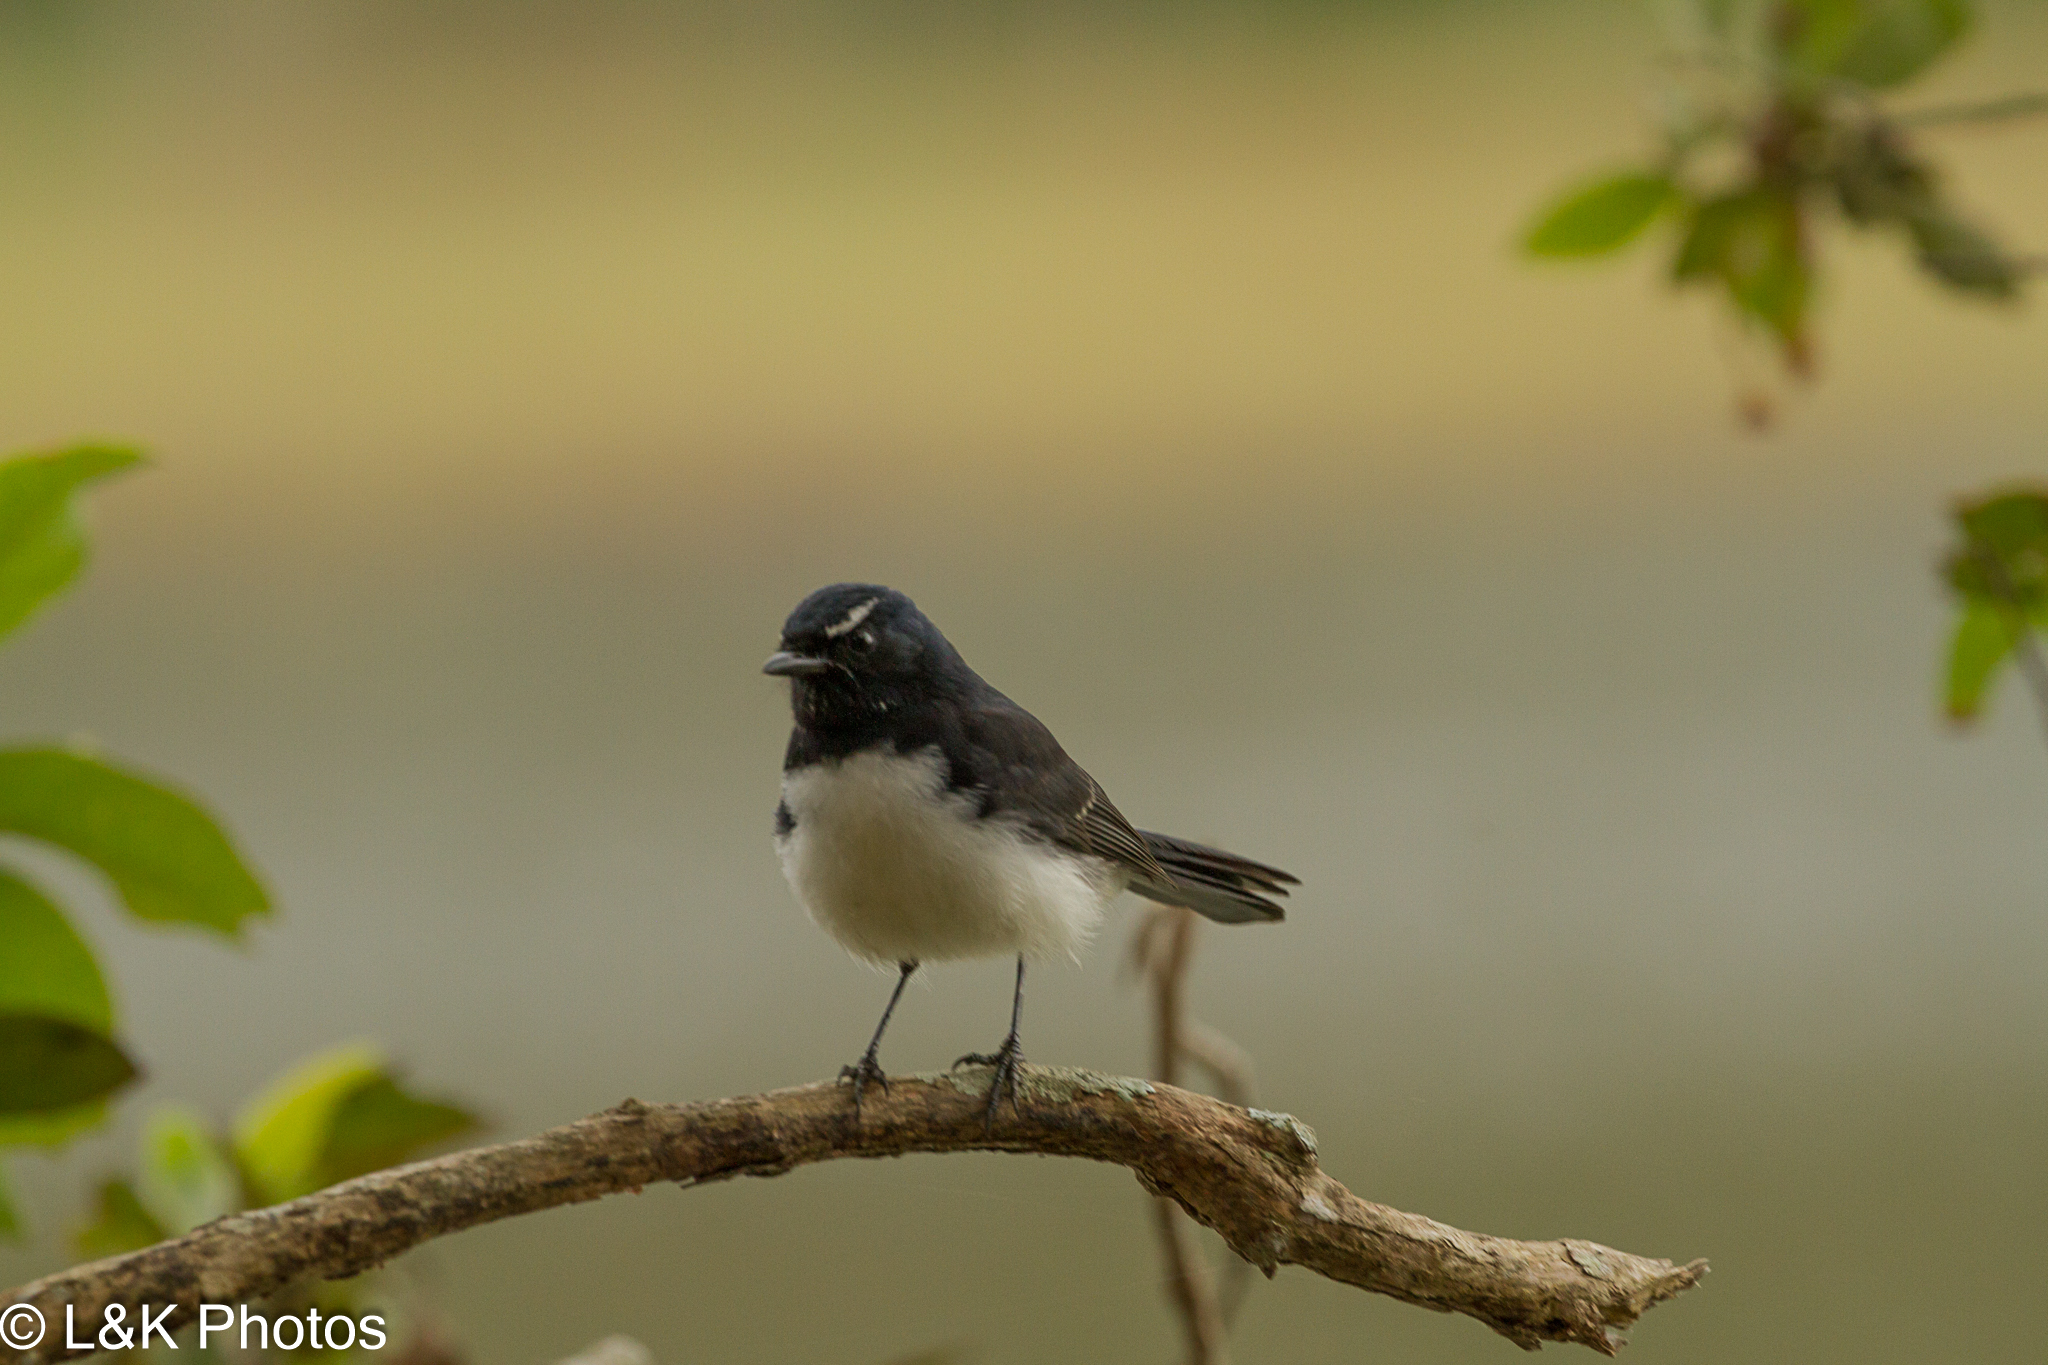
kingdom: Animalia
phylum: Chordata
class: Aves
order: Passeriformes
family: Rhipiduridae
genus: Rhipidura
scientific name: Rhipidura leucophrys
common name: Willie wagtail
